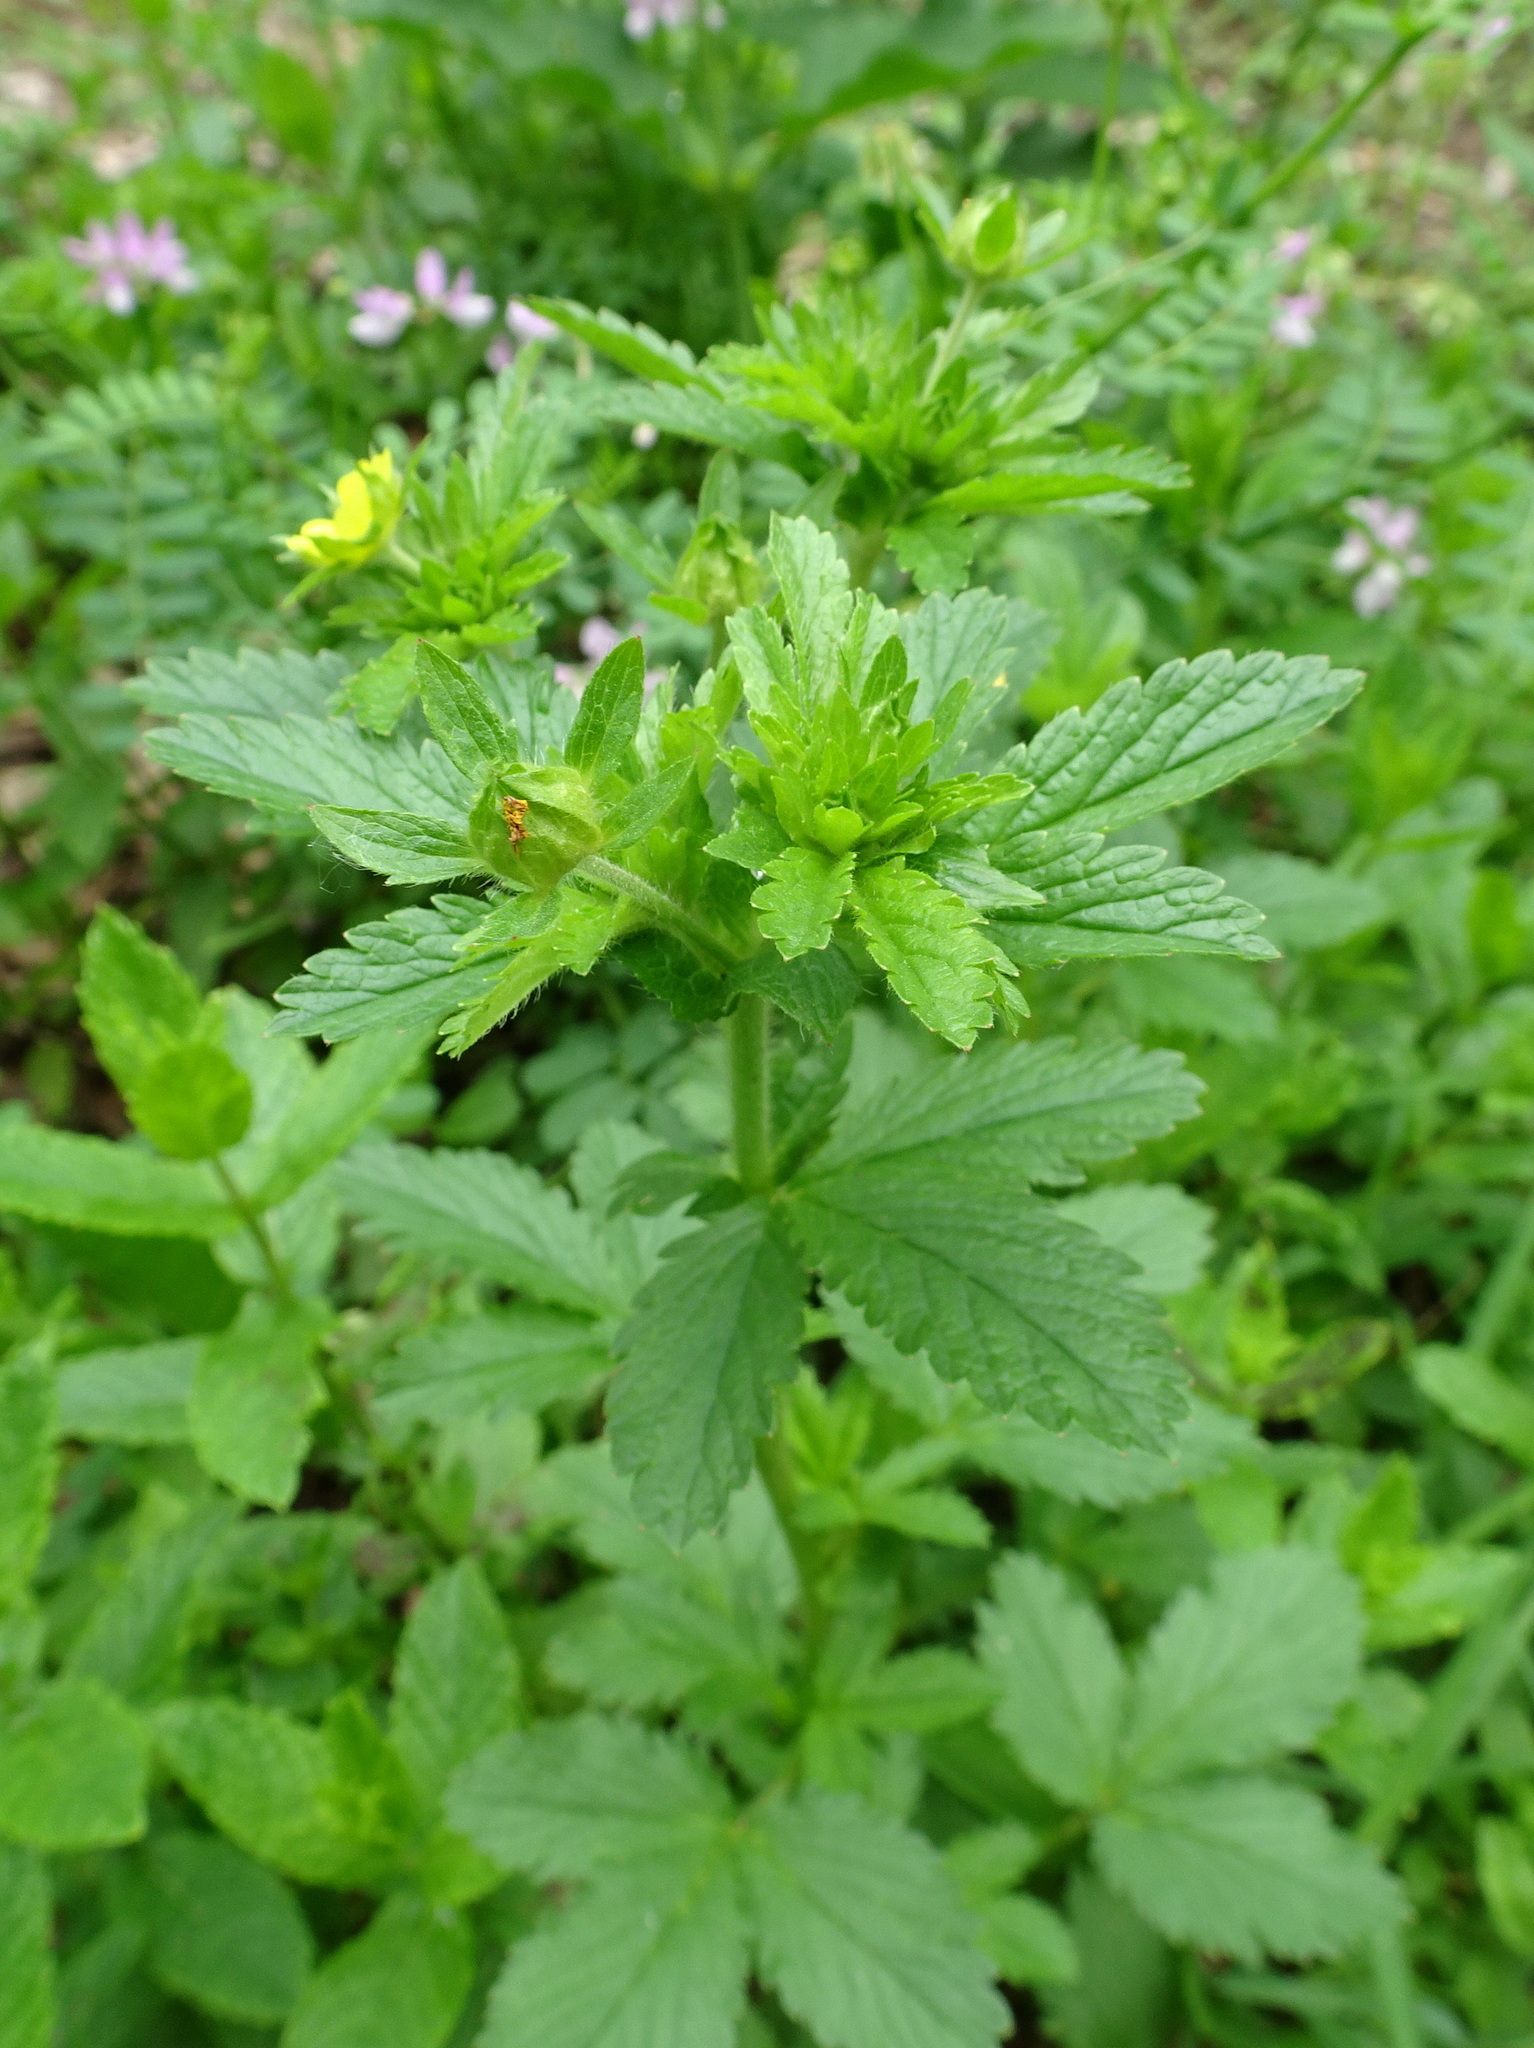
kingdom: Plantae
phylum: Tracheophyta
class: Magnoliopsida
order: Rosales
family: Rosaceae
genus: Potentilla
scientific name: Potentilla norvegica
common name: Ternate-leaved cinquefoil
